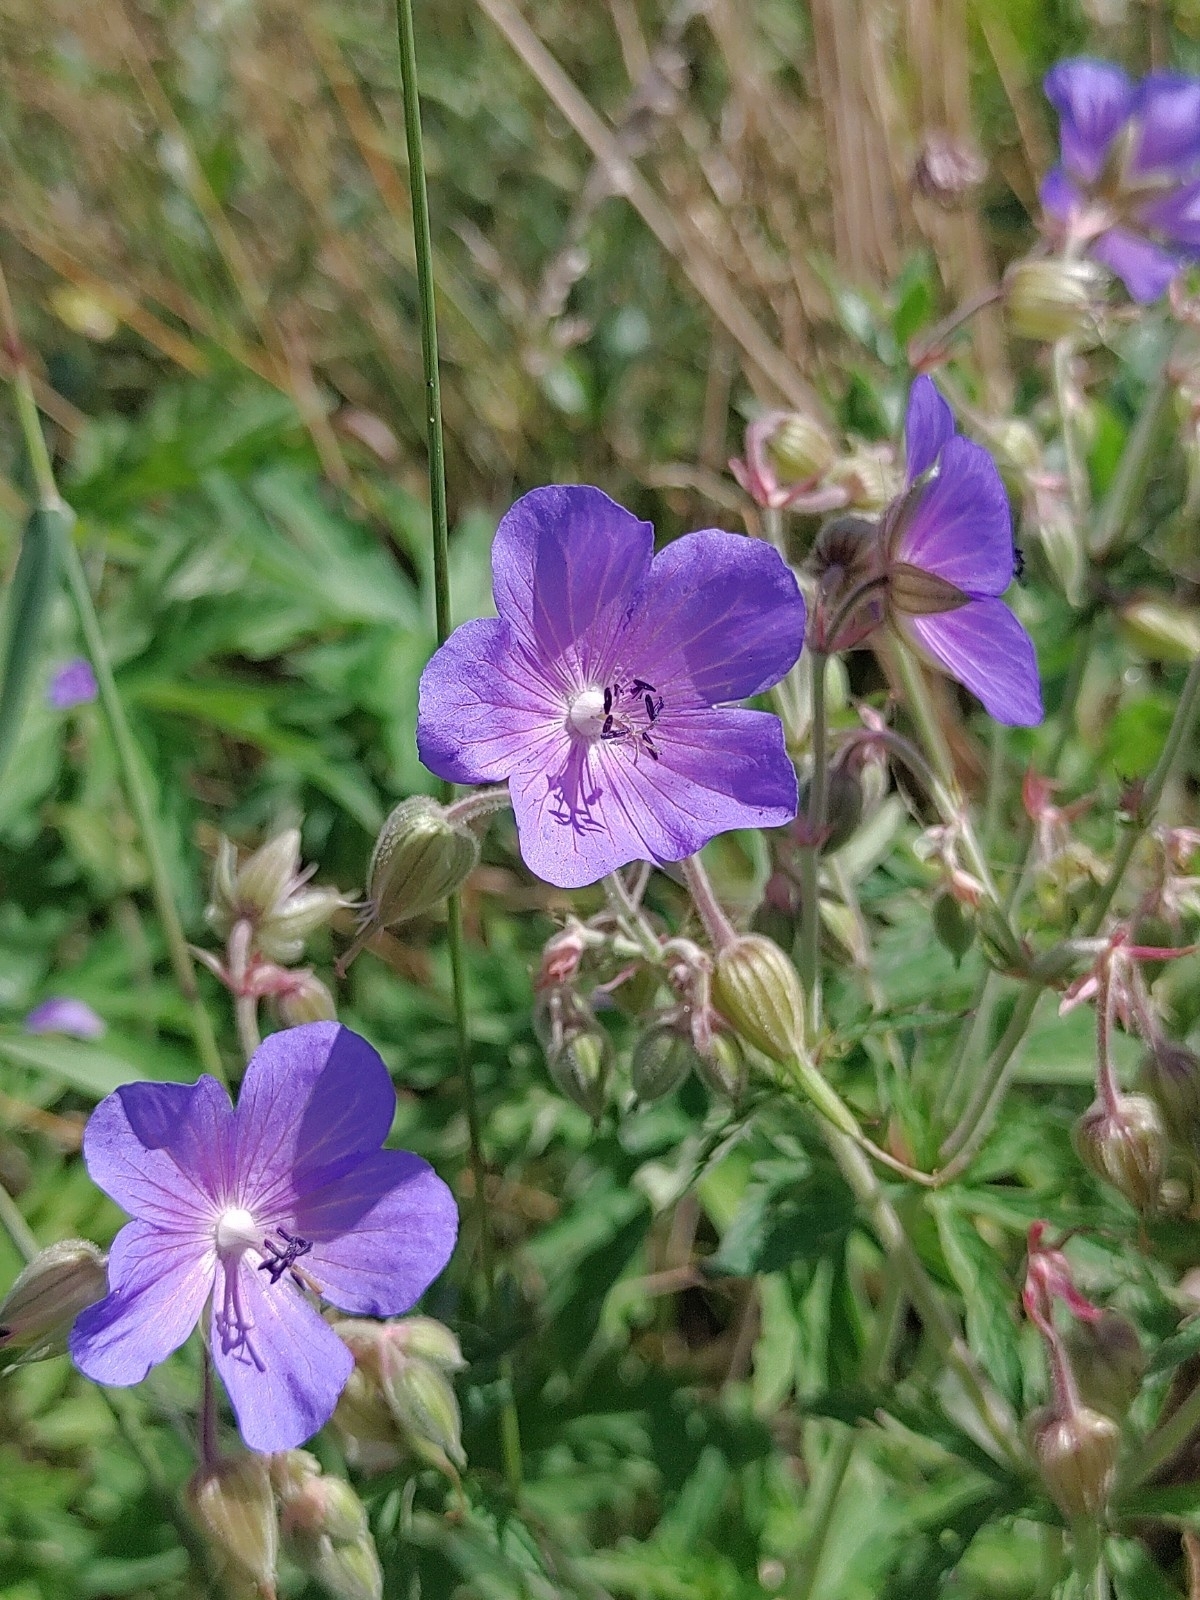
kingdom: Plantae
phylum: Tracheophyta
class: Magnoliopsida
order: Geraniales
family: Geraniaceae
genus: Geranium
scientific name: Geranium pratense
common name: Meadow crane's-bill
